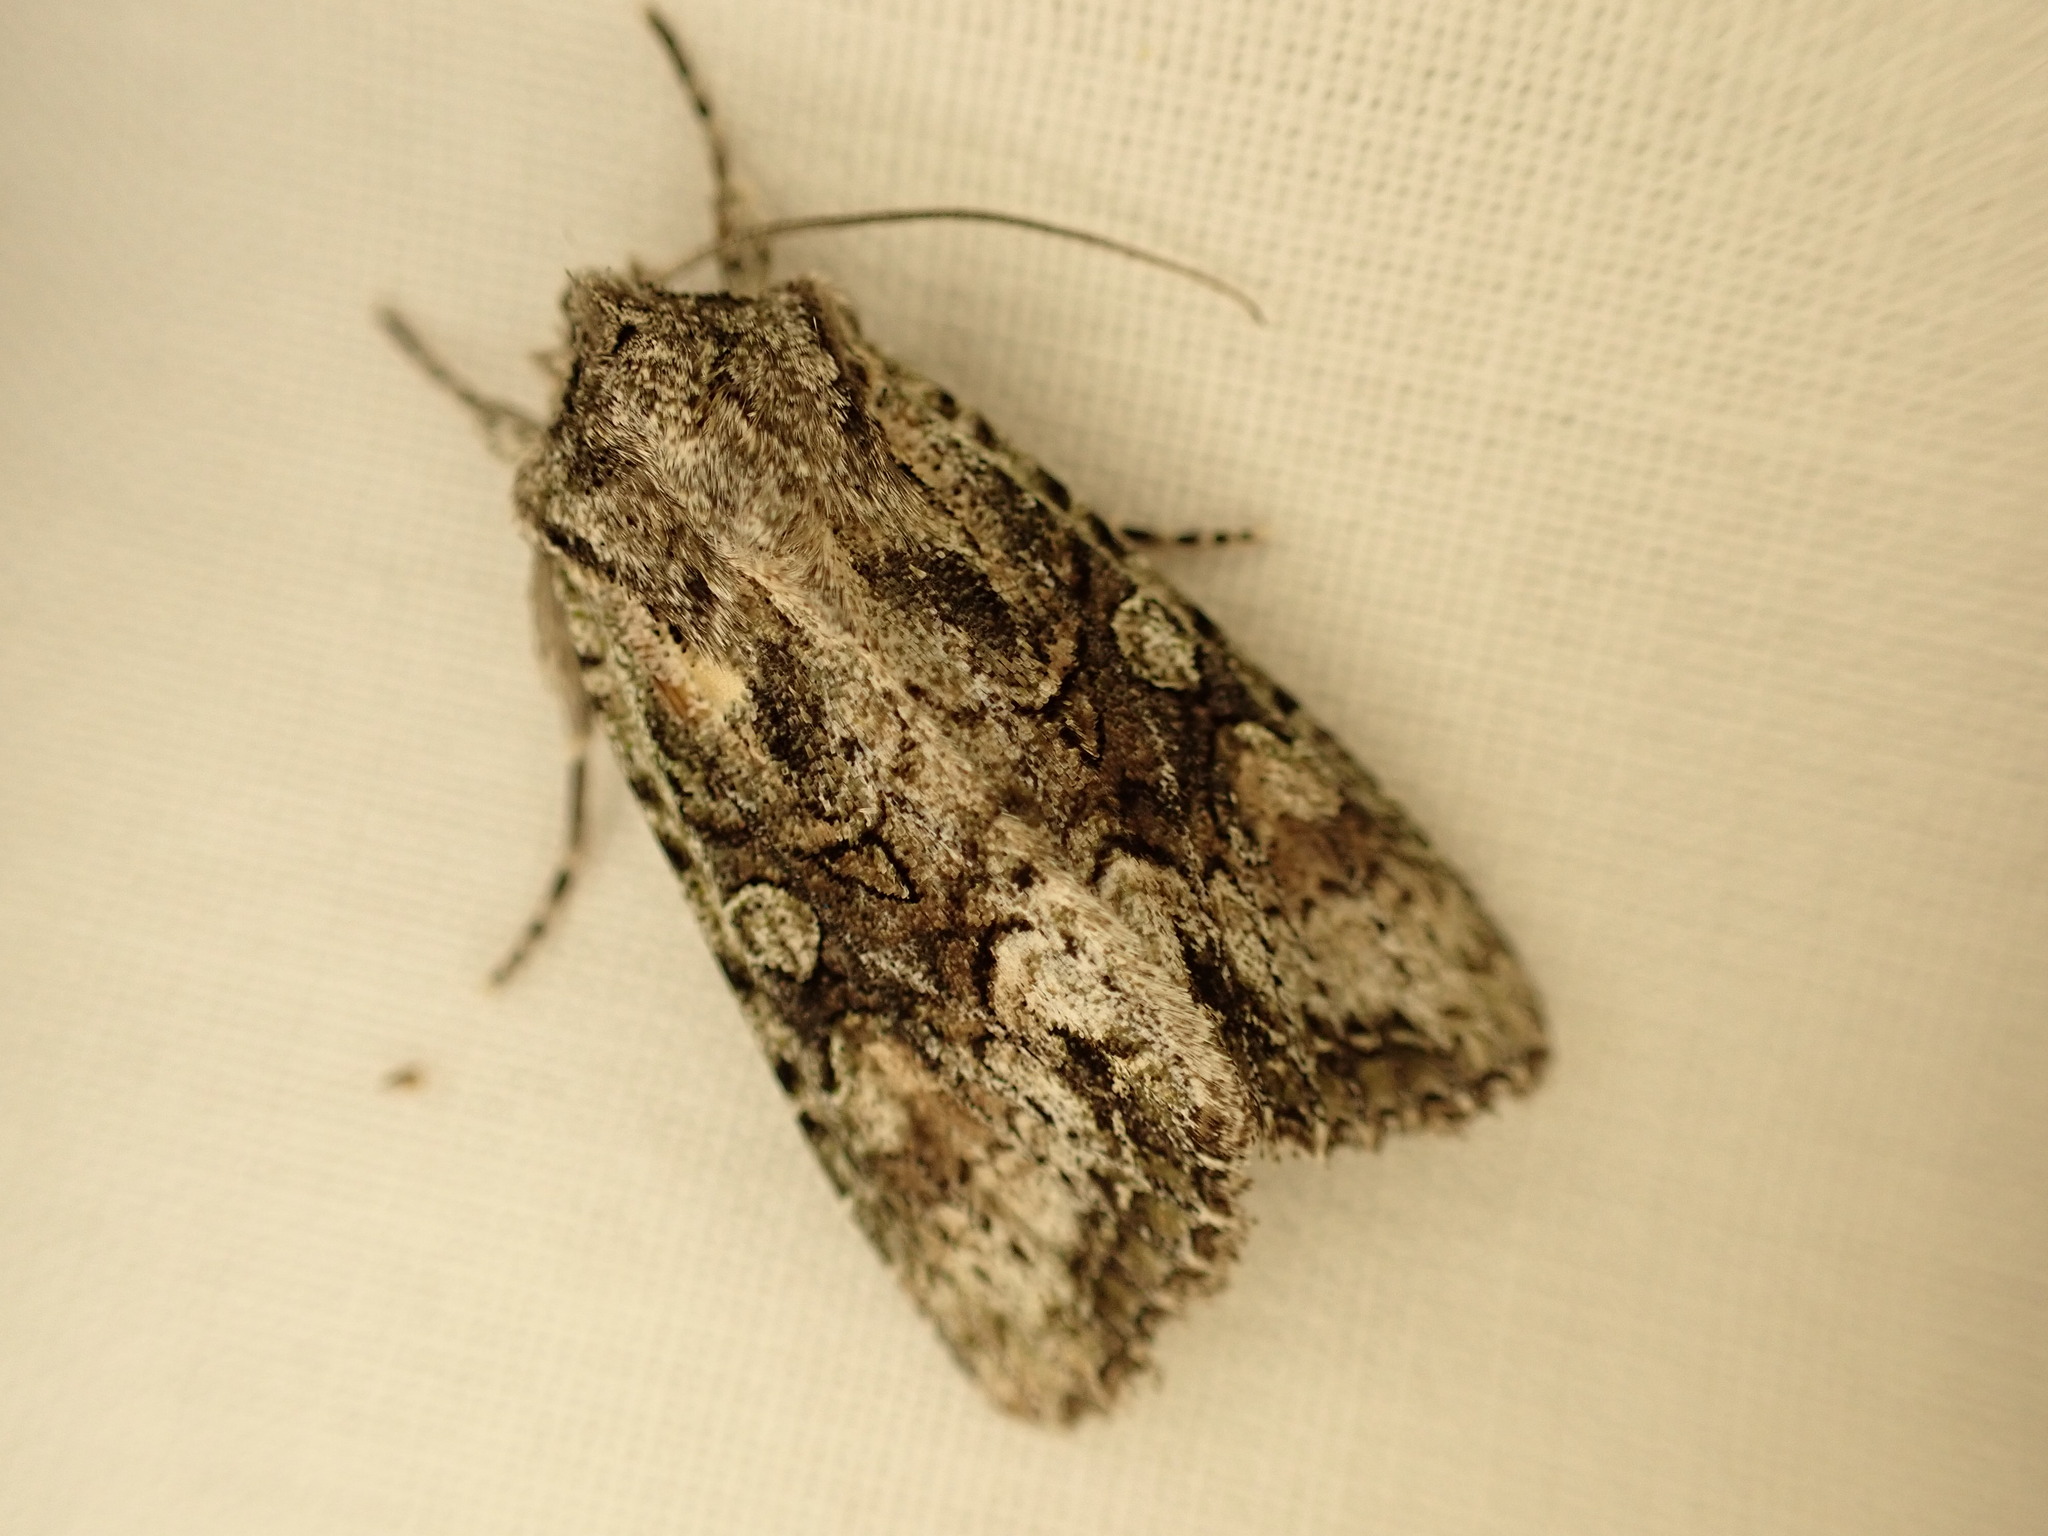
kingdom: Animalia
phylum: Arthropoda
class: Insecta
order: Lepidoptera
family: Noctuidae
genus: Ichneutica
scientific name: Ichneutica mutans
